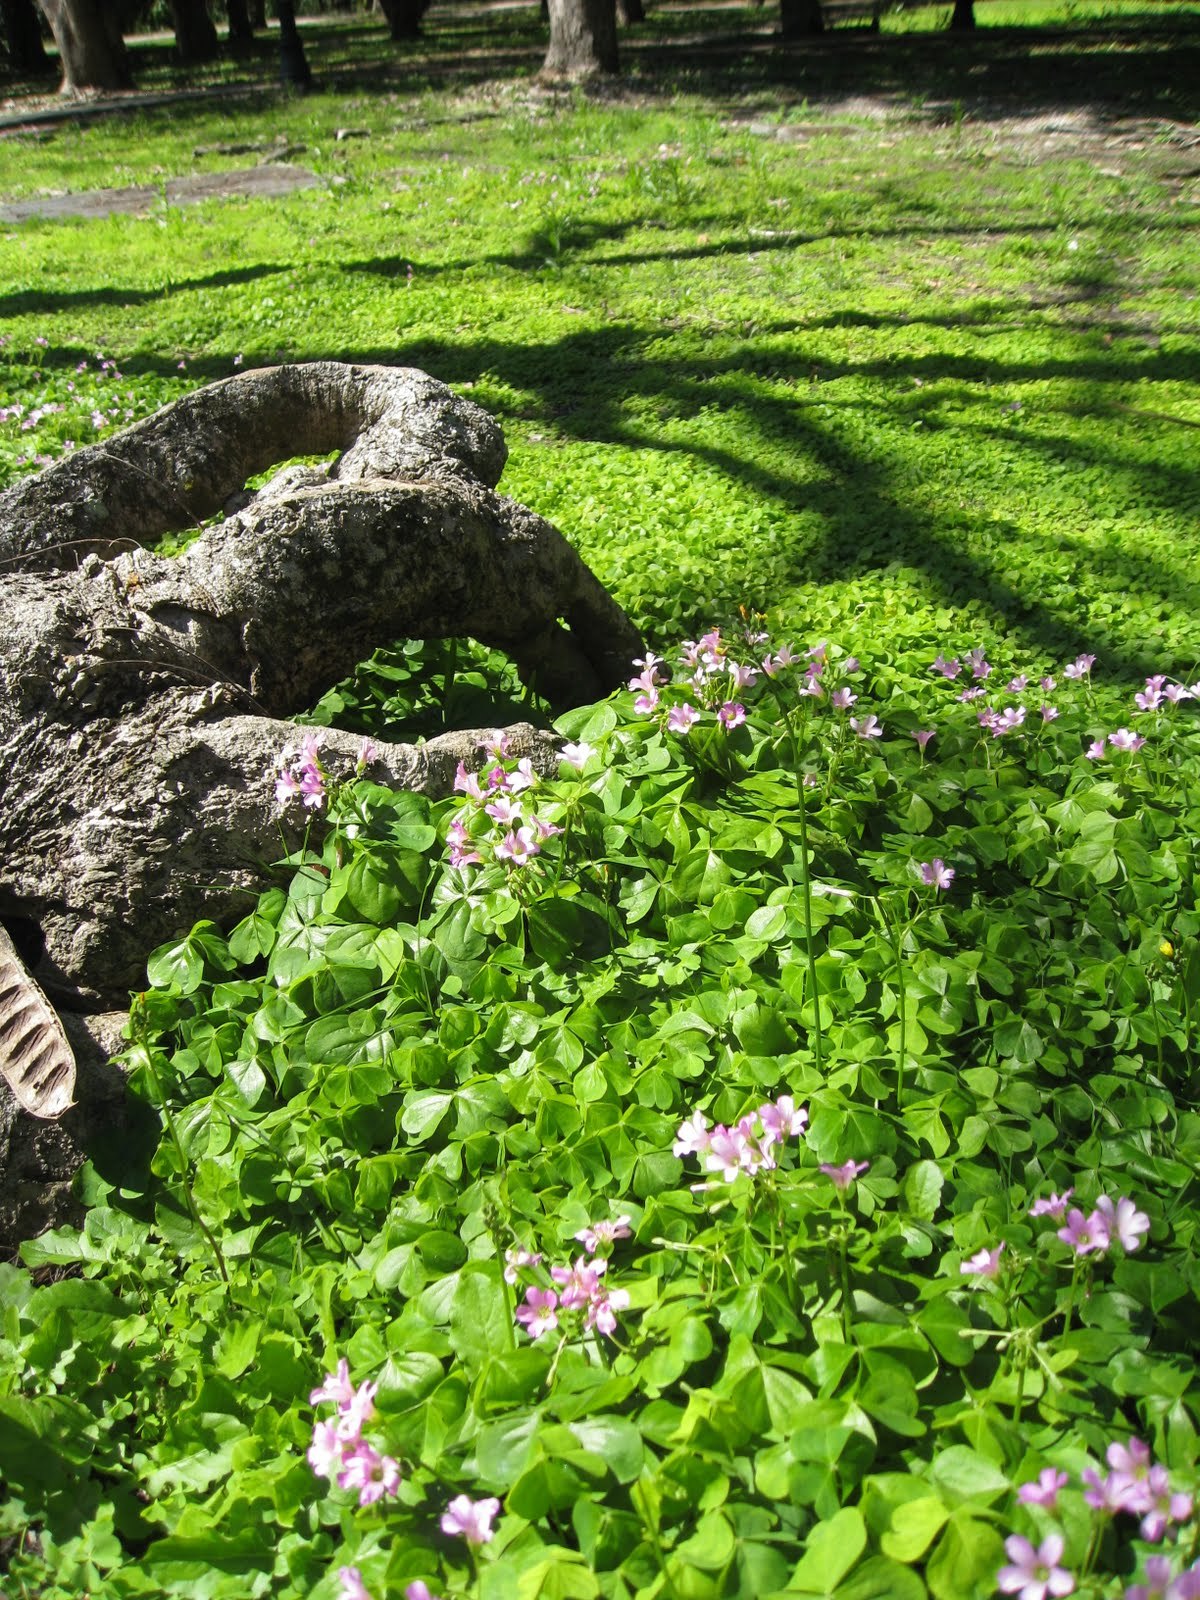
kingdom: Plantae
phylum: Tracheophyta
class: Magnoliopsida
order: Oxalidales
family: Oxalidaceae
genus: Oxalis
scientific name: Oxalis debilis
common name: Large-flowered pink-sorrel
